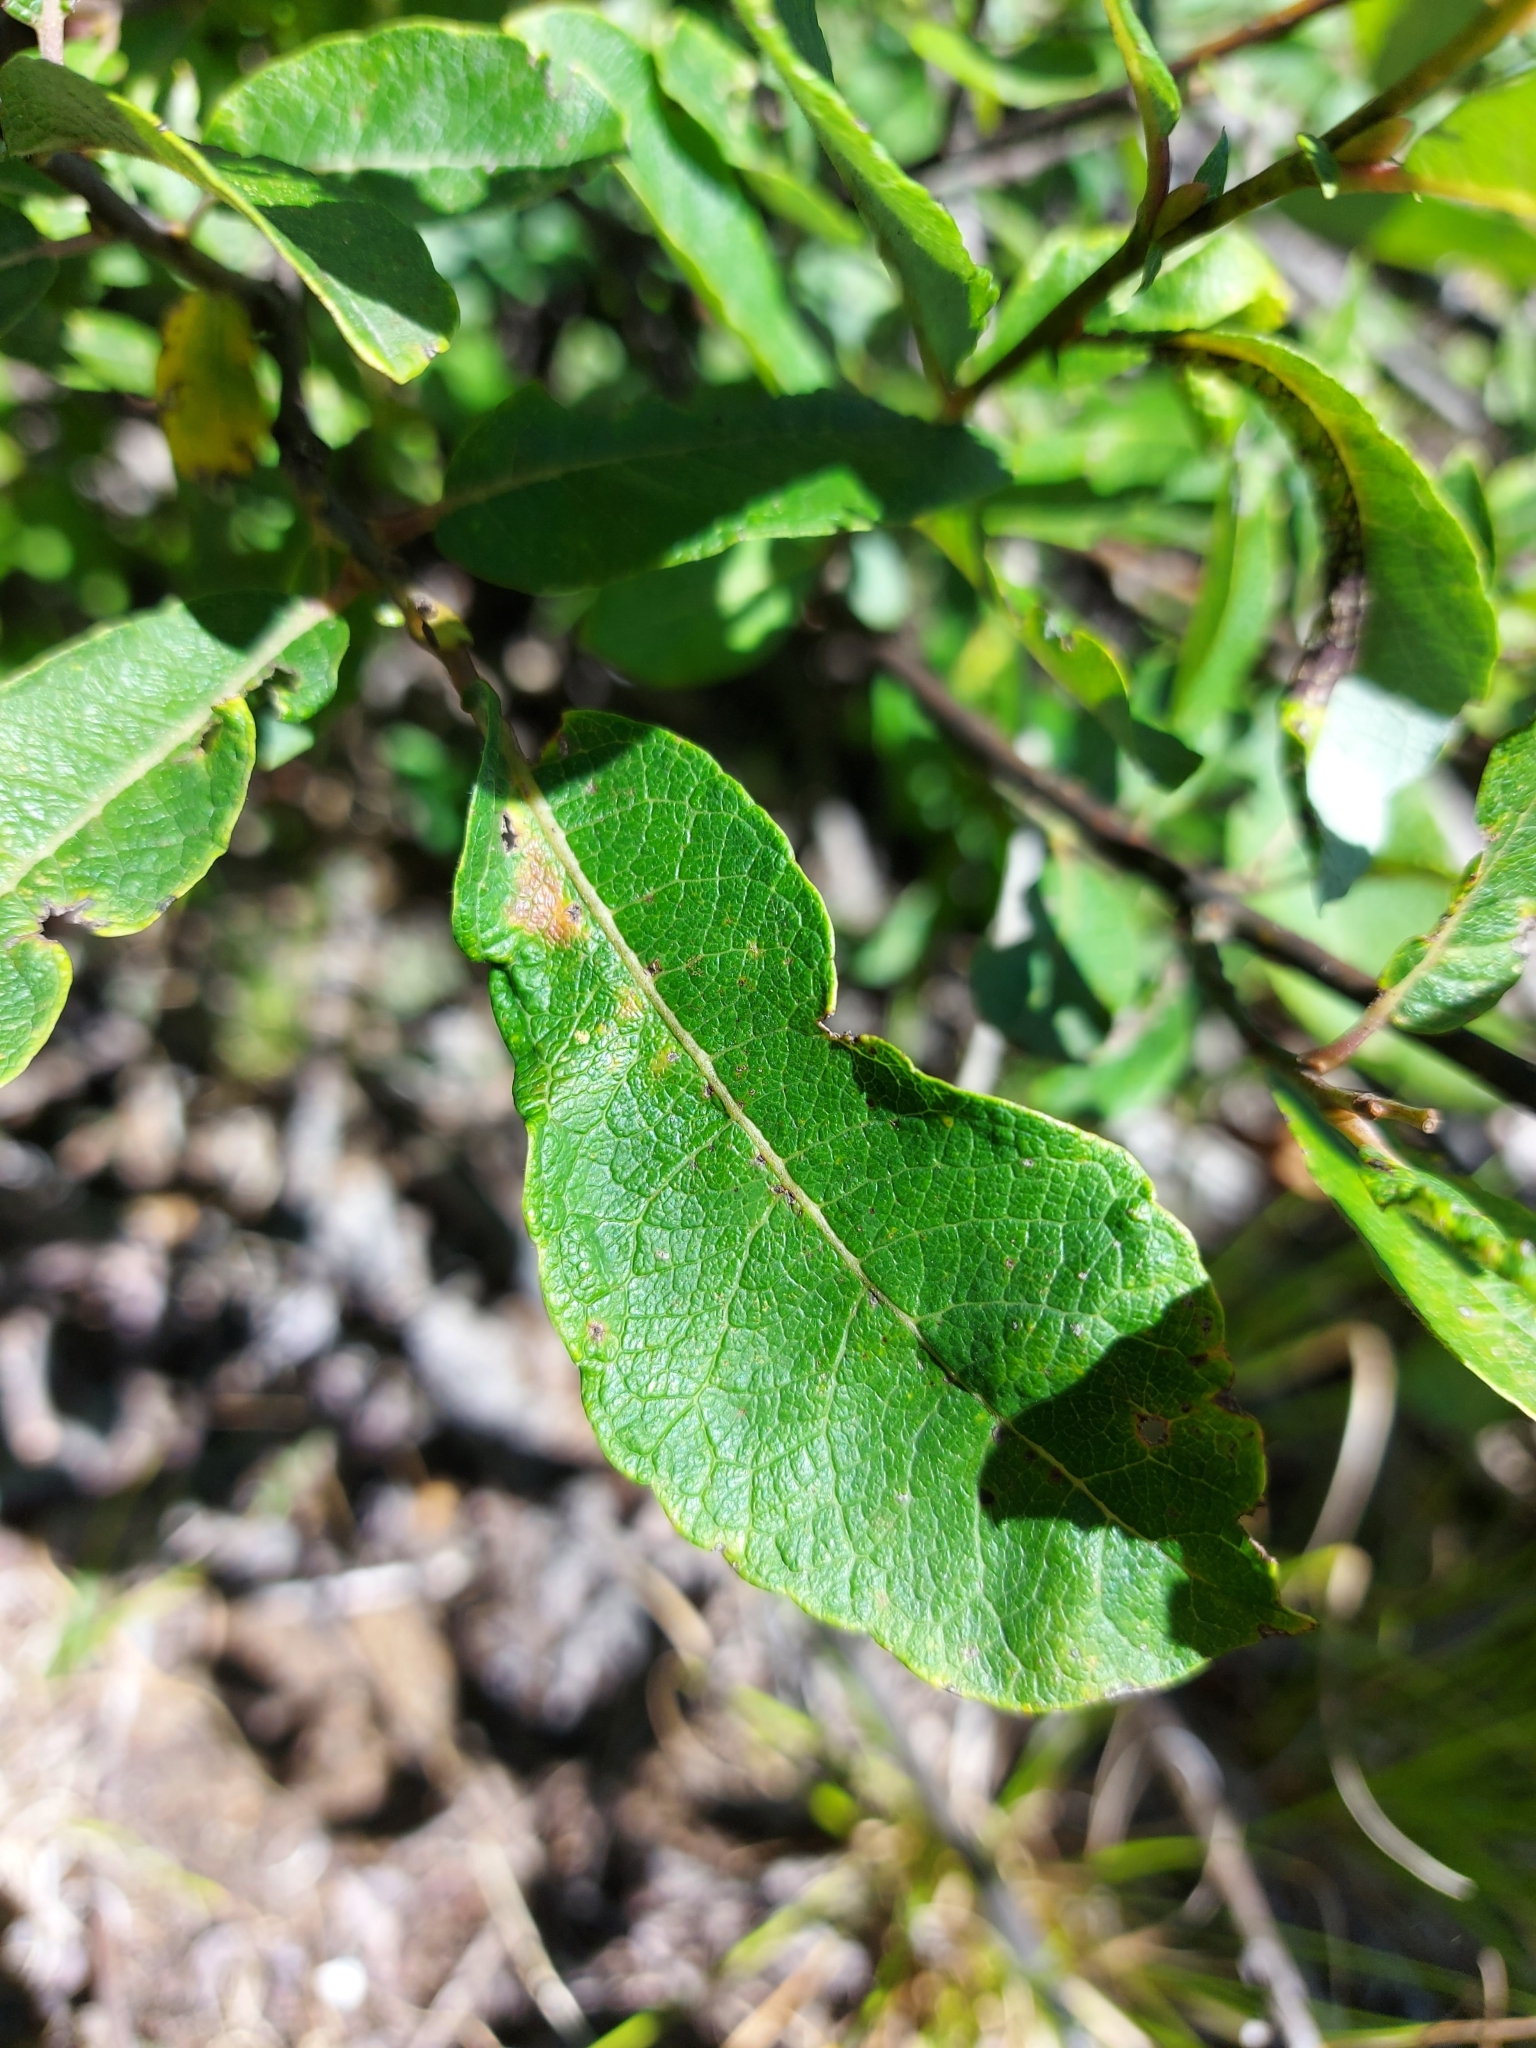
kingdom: Animalia
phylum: Arthropoda
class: Insecta
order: Diptera
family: Cecidomyiidae
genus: Rabdophaga
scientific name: Rabdophaga strobiloides
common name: Willow pinecone gall midge
